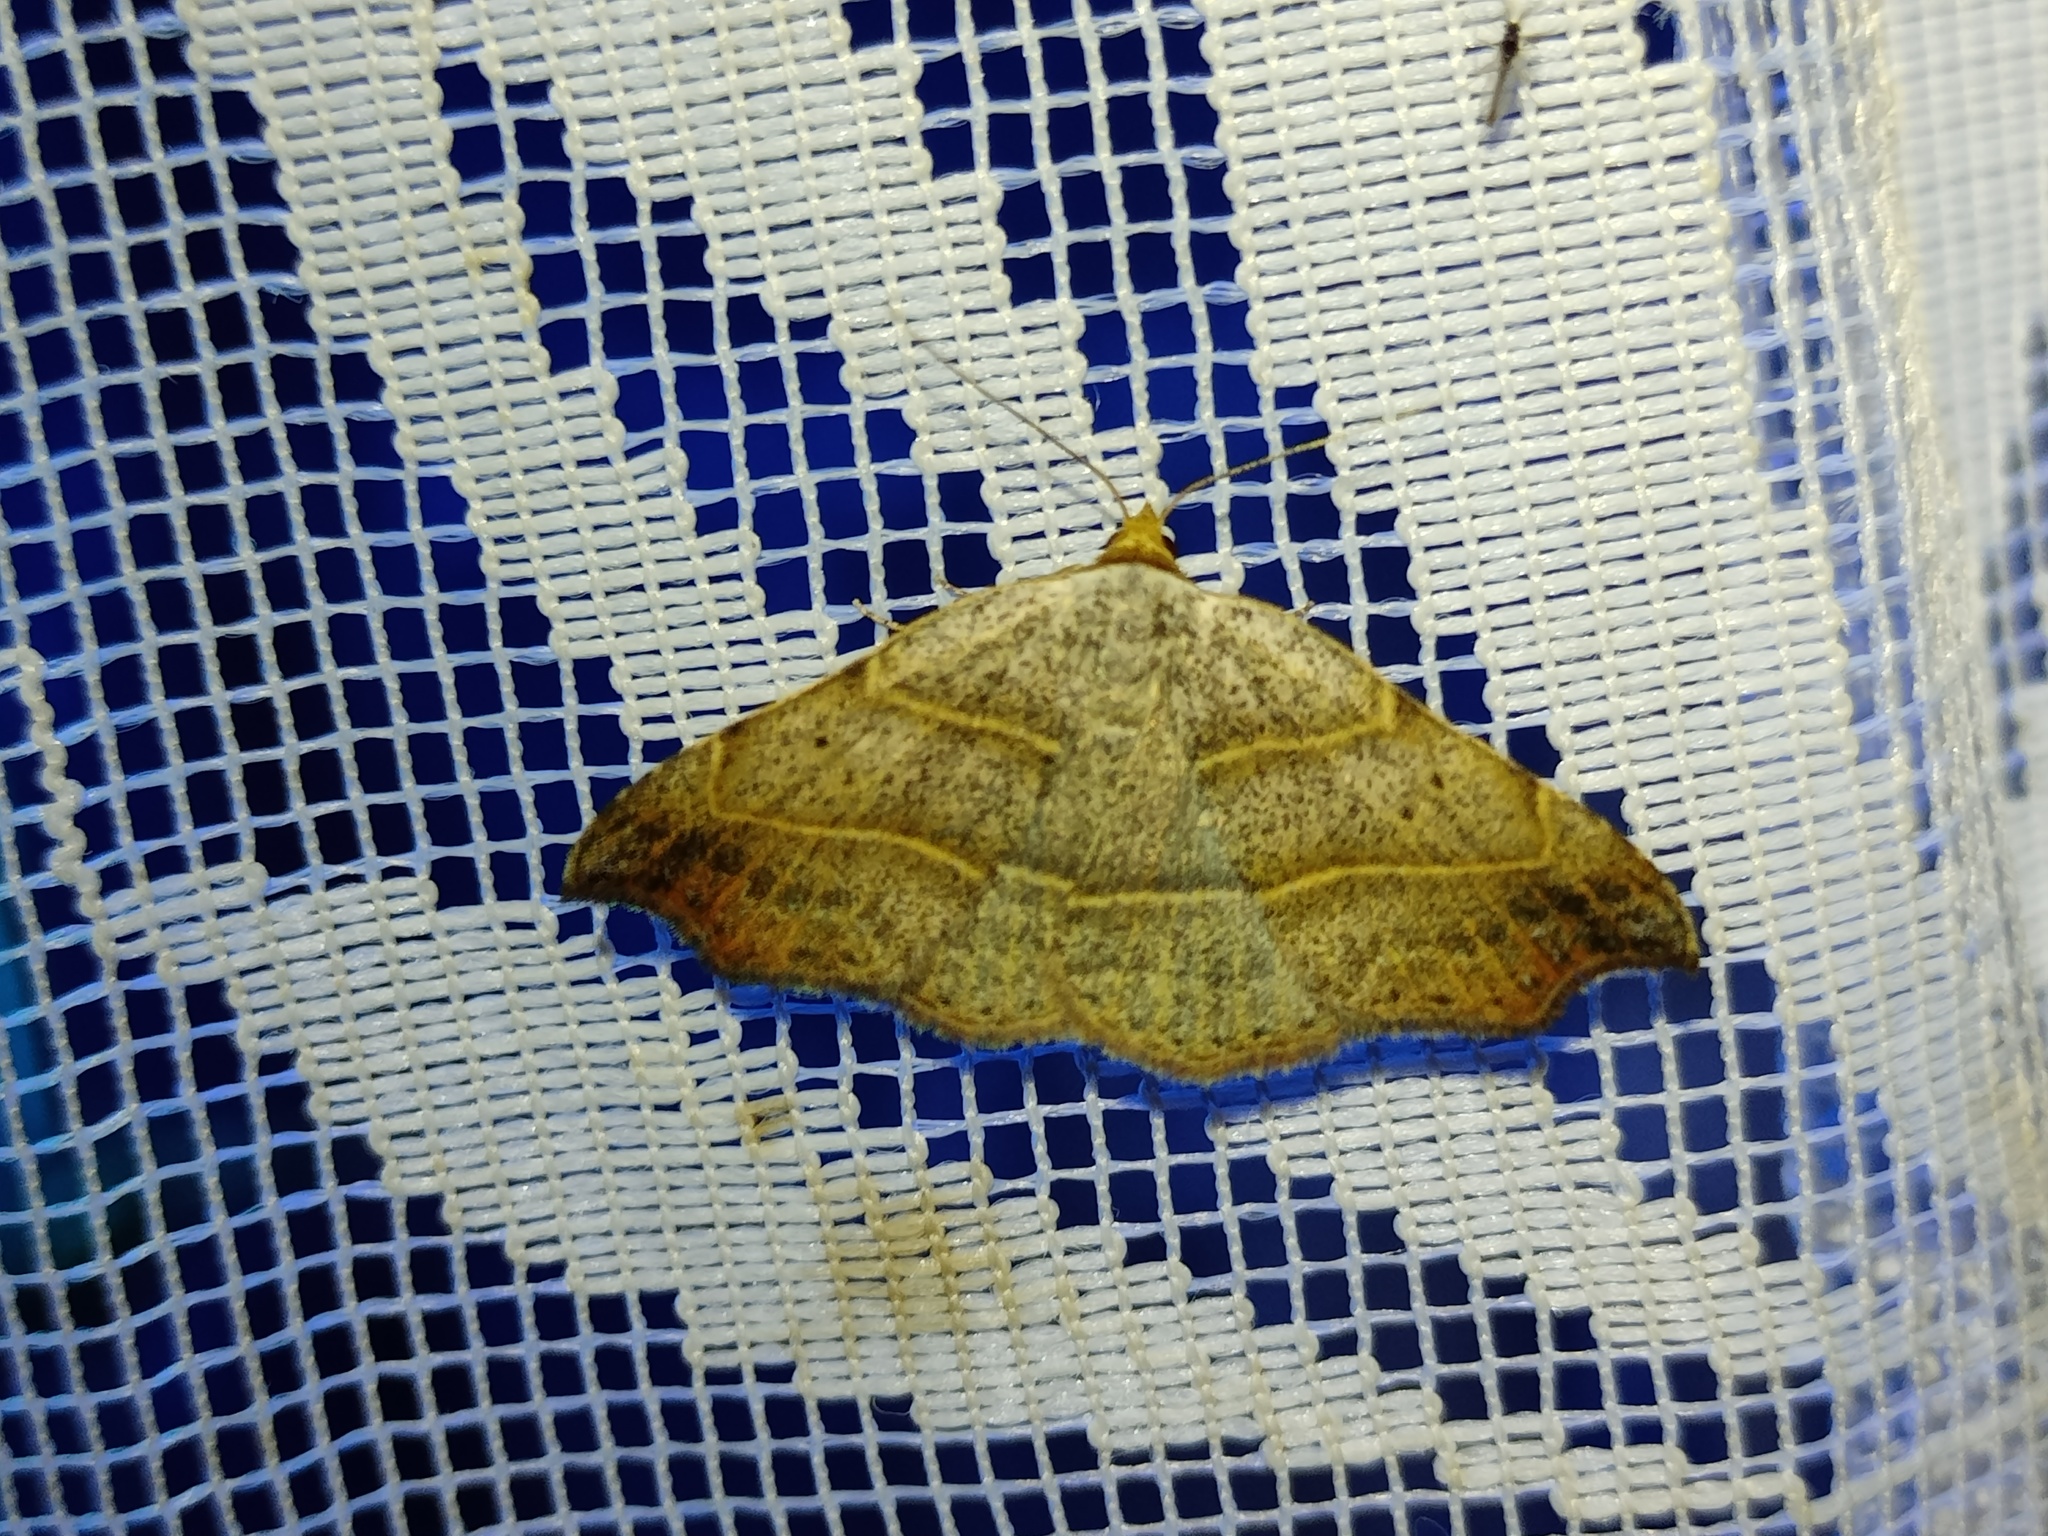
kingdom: Animalia
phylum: Arthropoda
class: Insecta
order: Lepidoptera
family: Erebidae
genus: Laspeyria
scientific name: Laspeyria flexula
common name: Beautiful hook-tip
